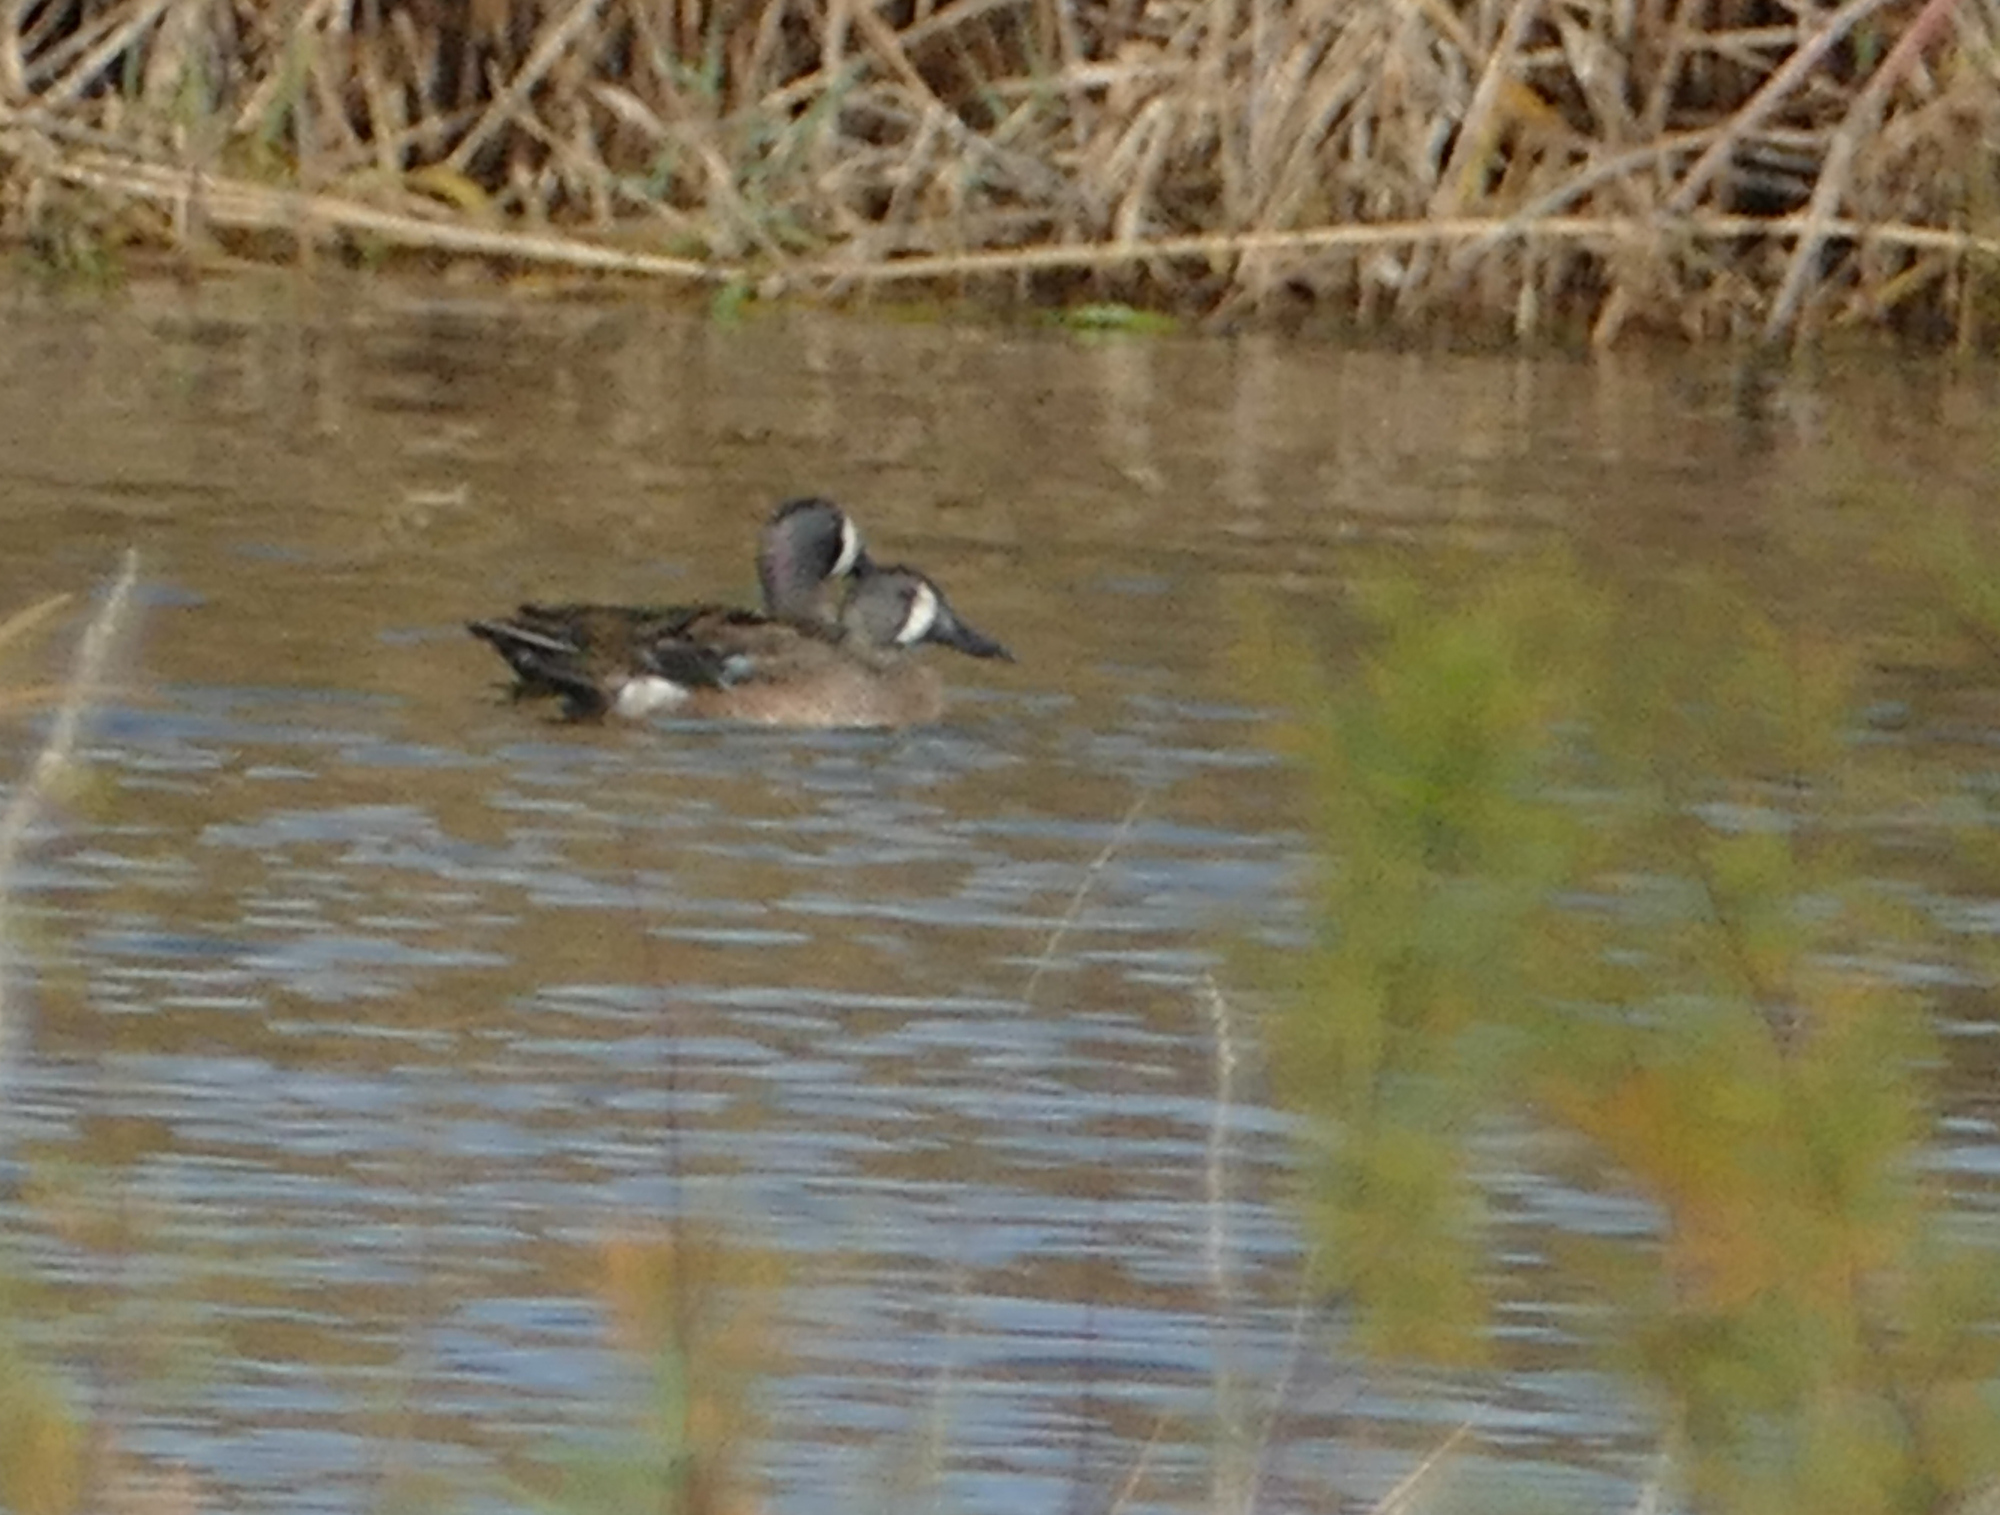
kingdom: Animalia
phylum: Chordata
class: Aves
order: Anseriformes
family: Anatidae
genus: Spatula
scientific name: Spatula discors
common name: Blue-winged teal
